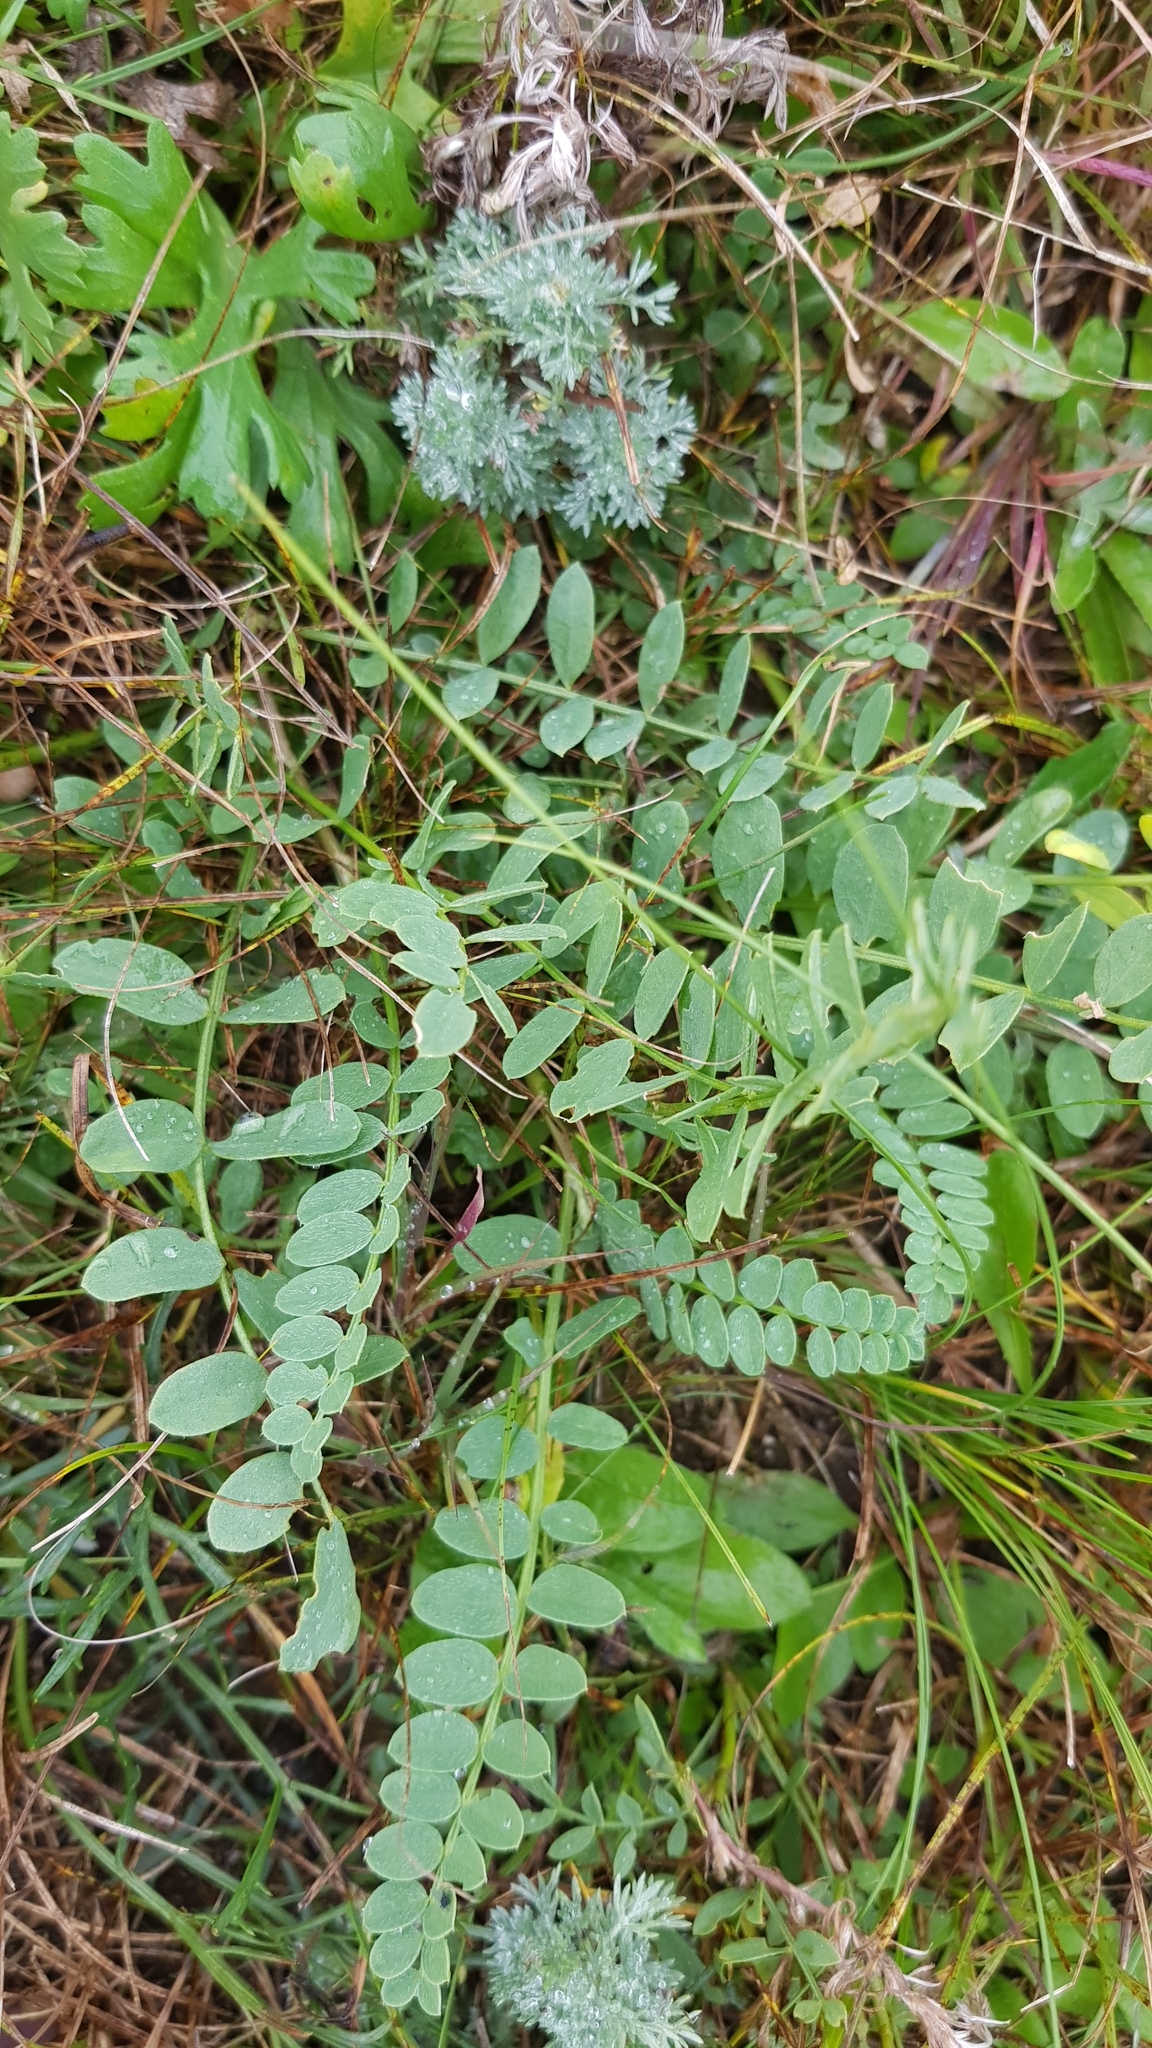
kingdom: Plantae
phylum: Tracheophyta
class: Magnoliopsida
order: Fabales
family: Fabaceae
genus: Astragalus
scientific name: Astragalus laxmannii
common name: Laxmann's milk-vetch
